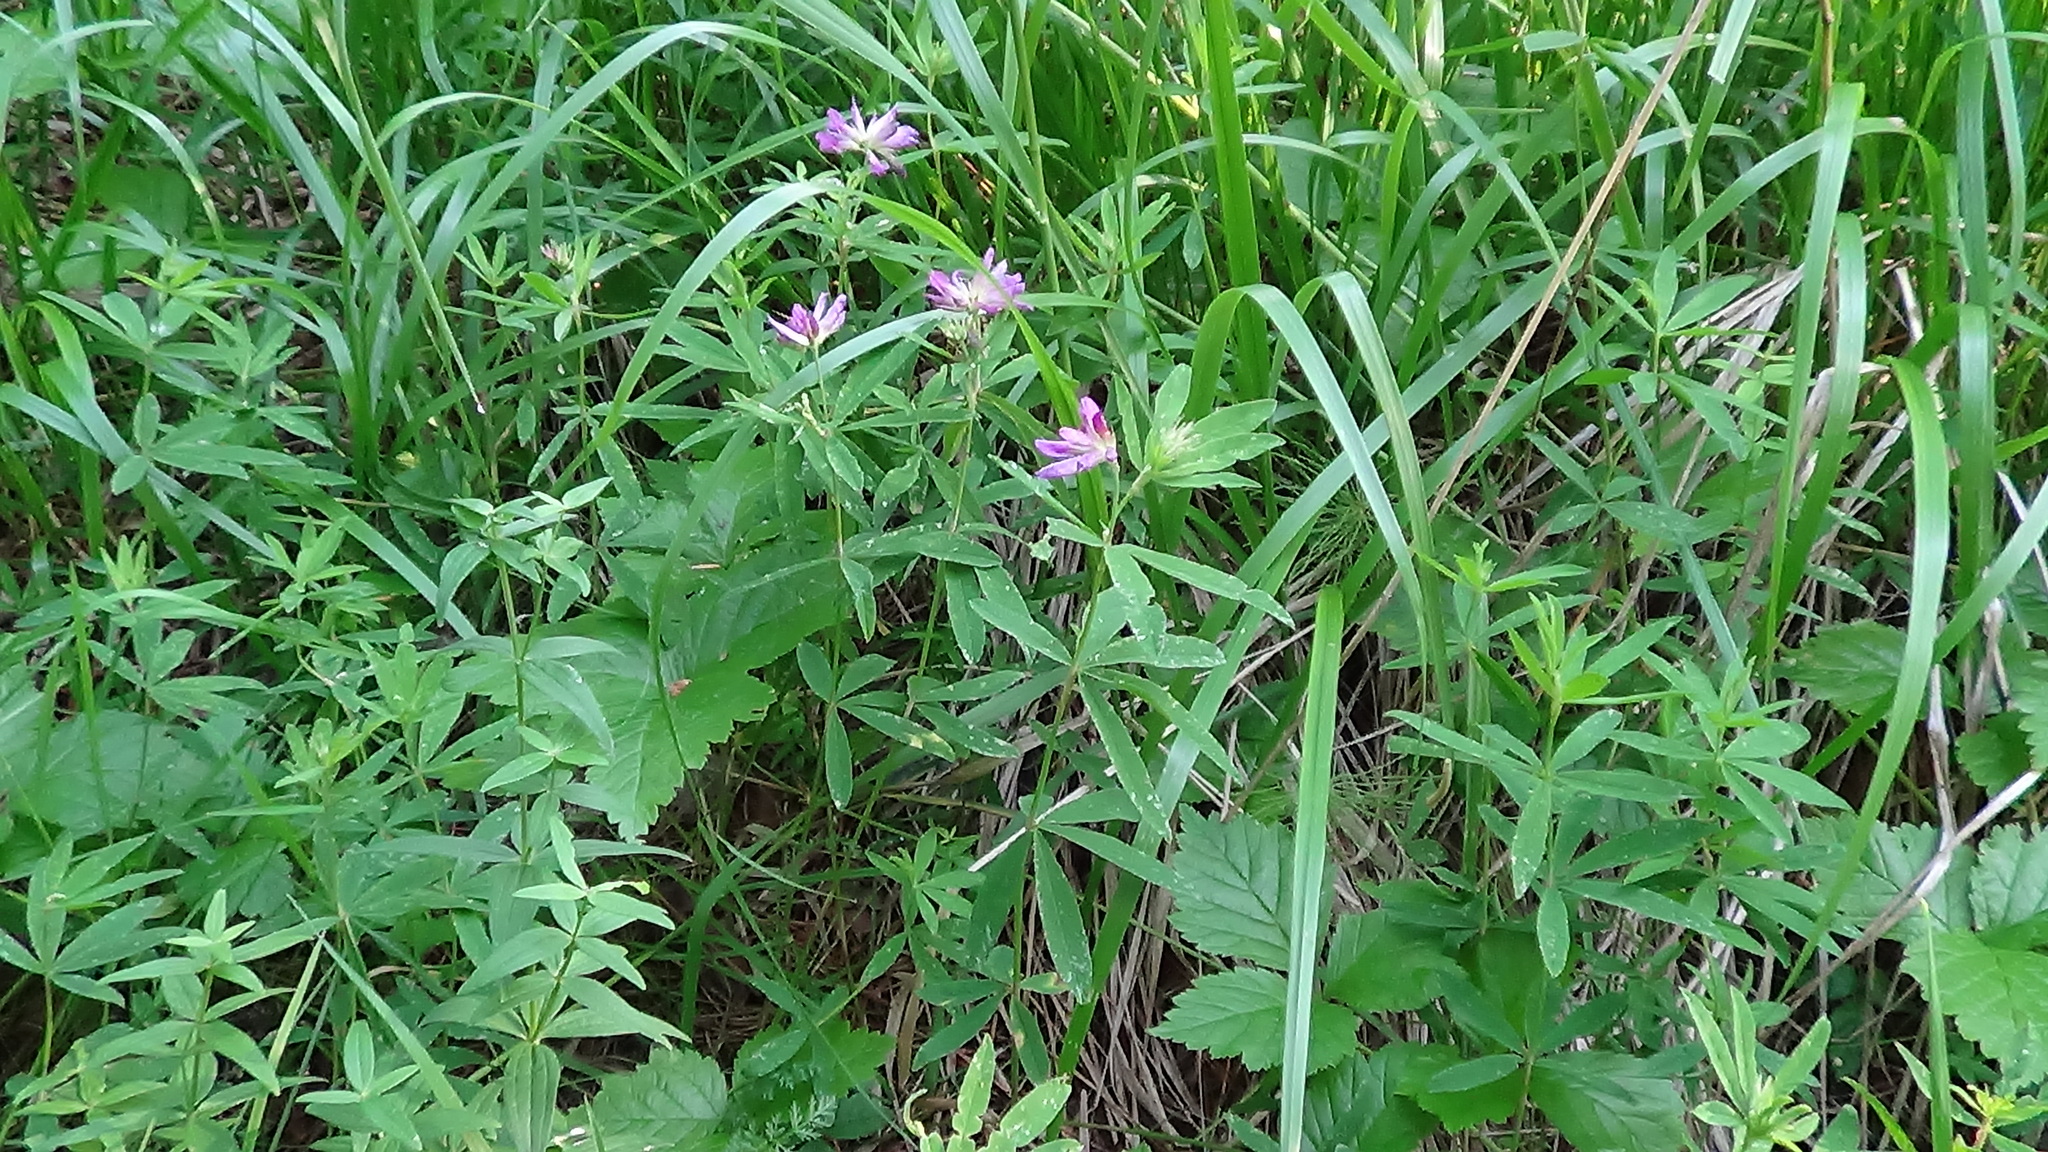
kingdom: Plantae
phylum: Tracheophyta
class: Magnoliopsida
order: Fabales
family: Fabaceae
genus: Trifolium
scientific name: Trifolium lupinaster
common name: Lupine clover
